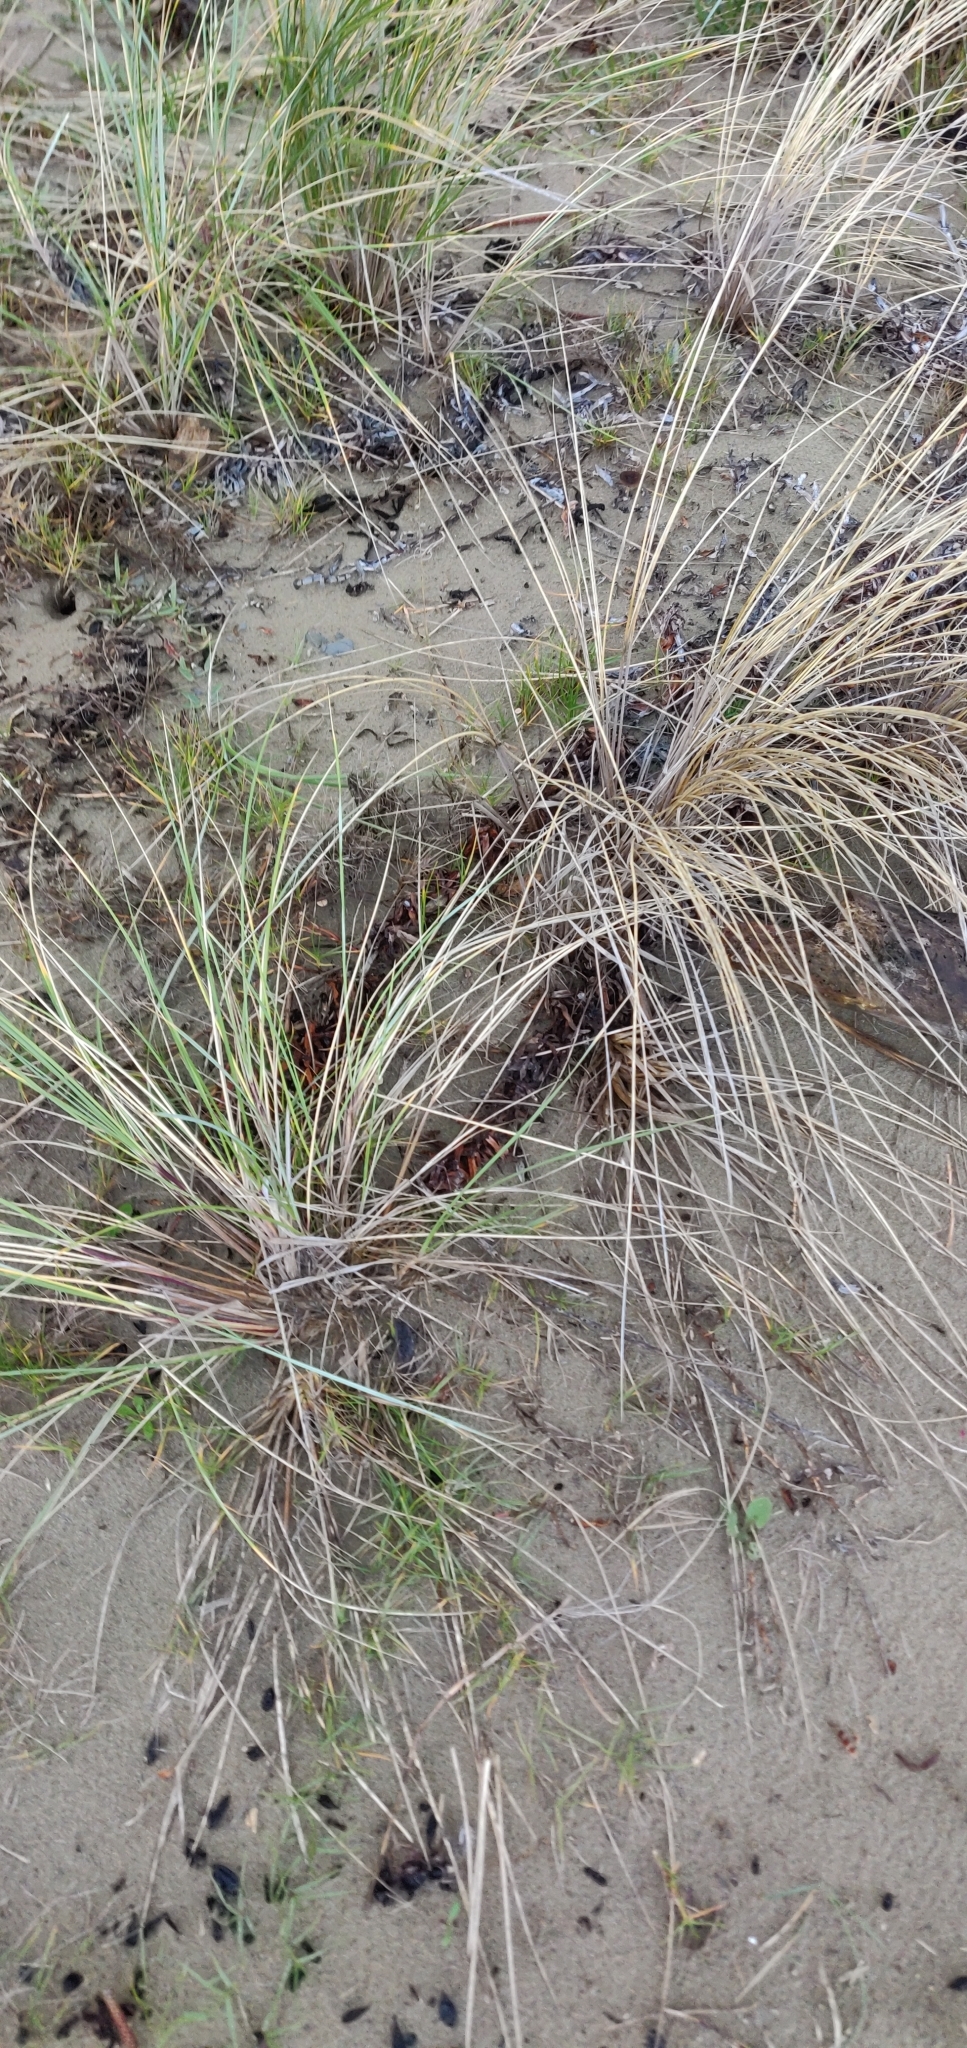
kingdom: Plantae
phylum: Tracheophyta
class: Liliopsida
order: Poales
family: Poaceae
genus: Spinifex
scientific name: Spinifex sericeus
